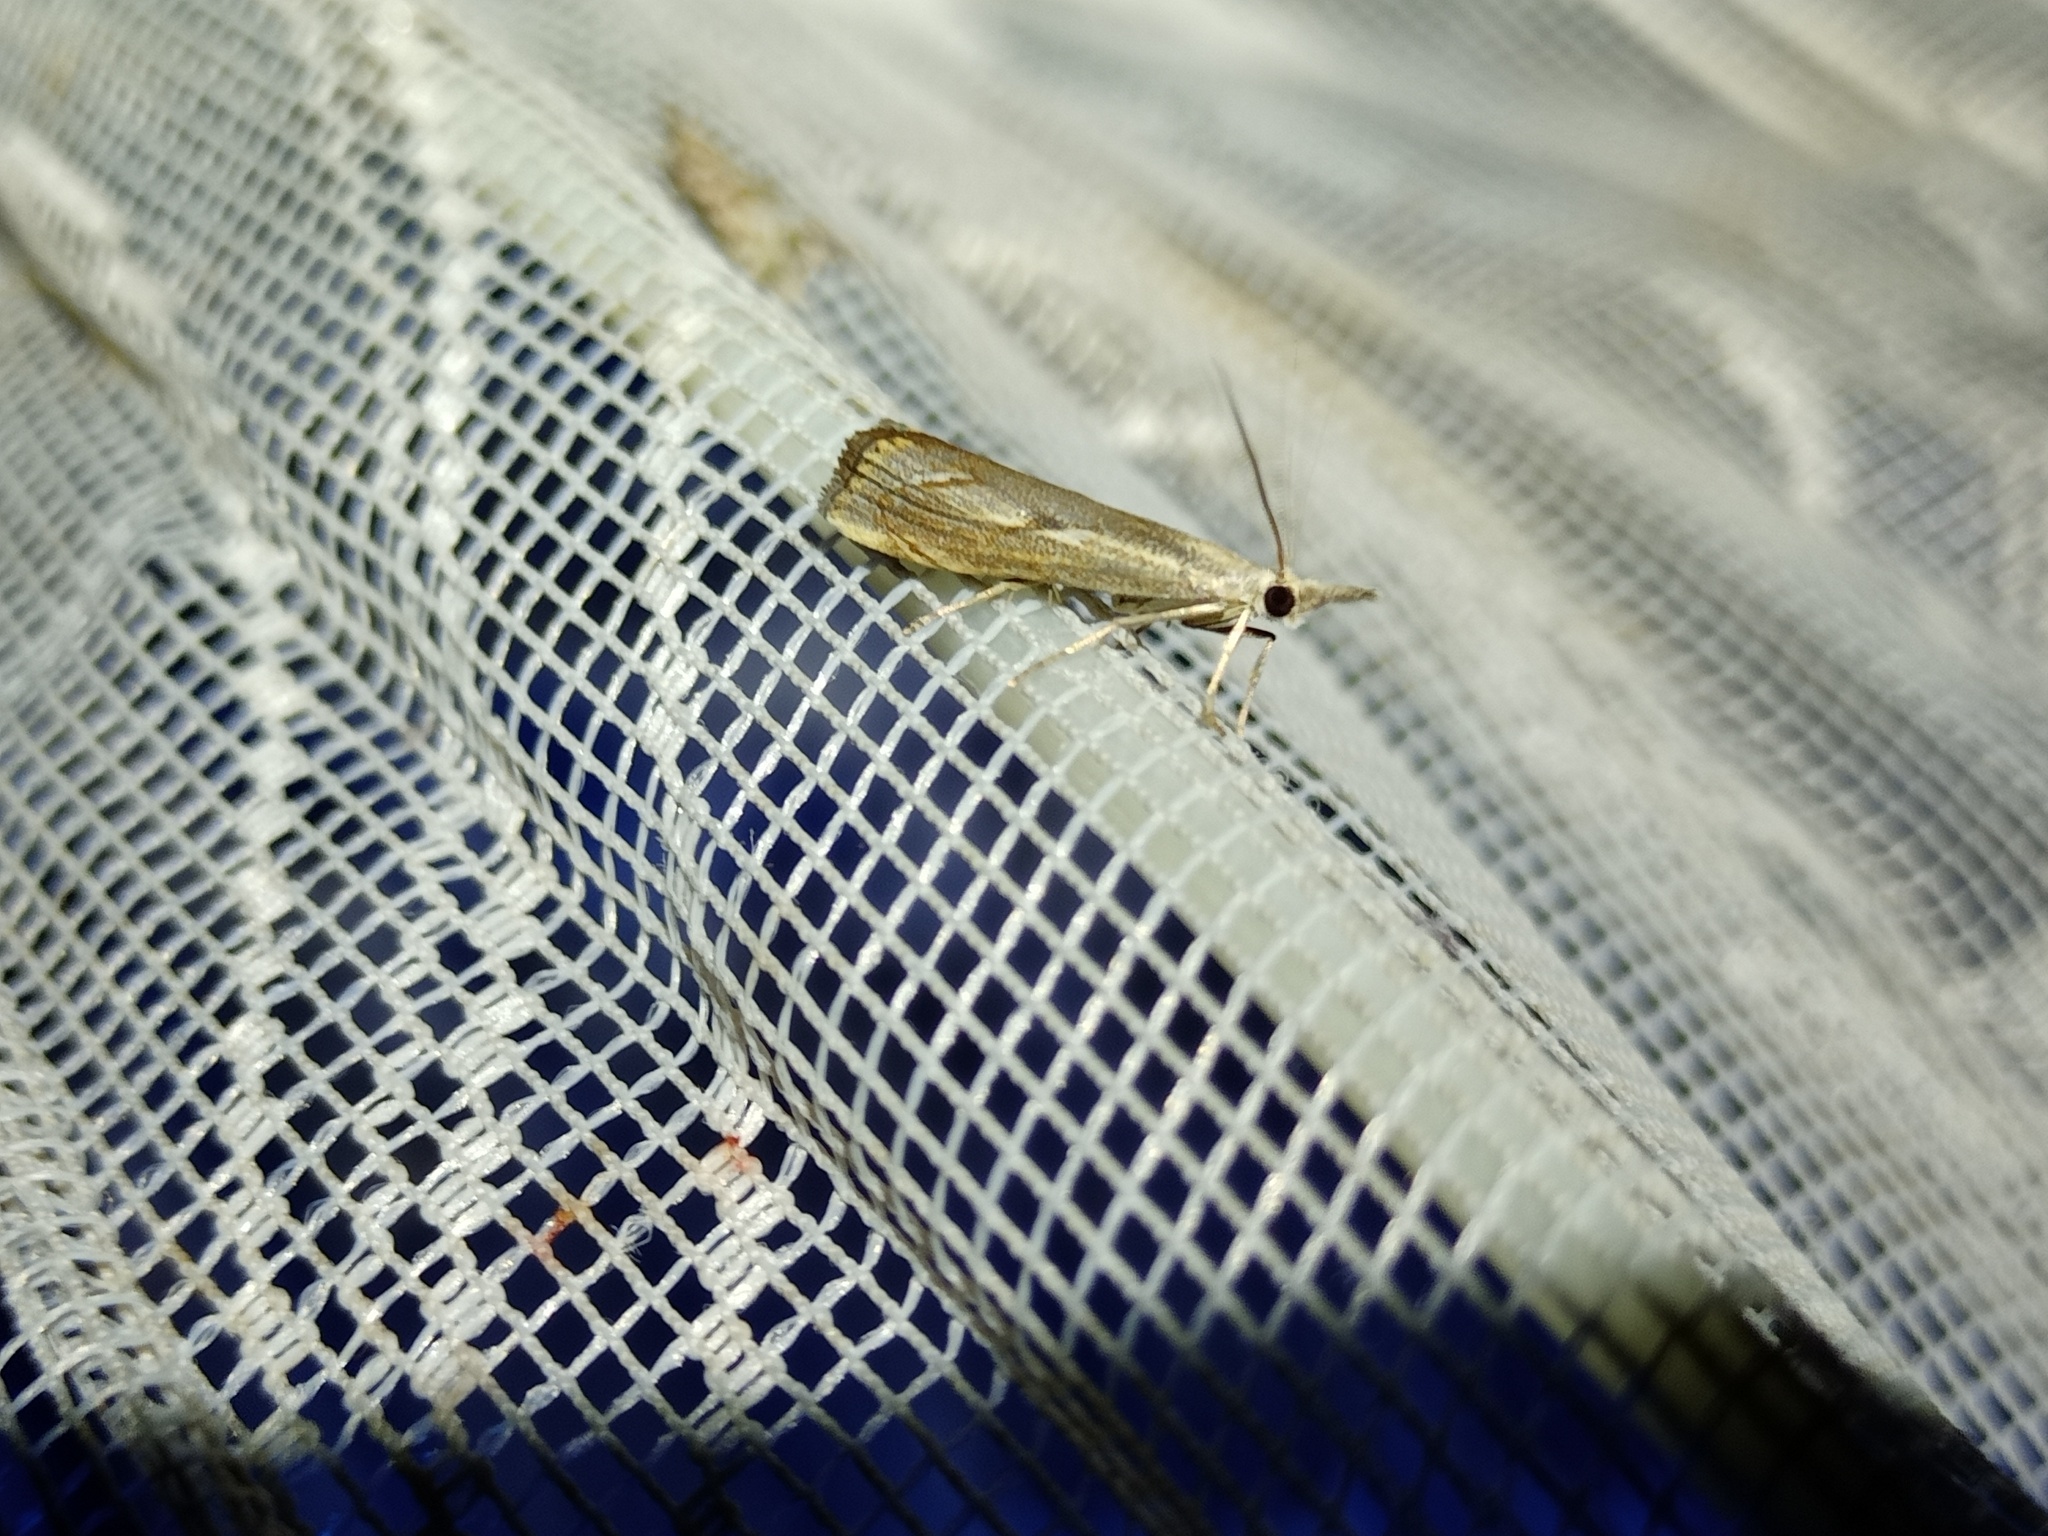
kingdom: Animalia
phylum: Arthropoda
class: Insecta
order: Lepidoptera
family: Crambidae
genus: Agriphila
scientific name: Agriphila geniculea
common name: Elbow-stripe grass-veneer
